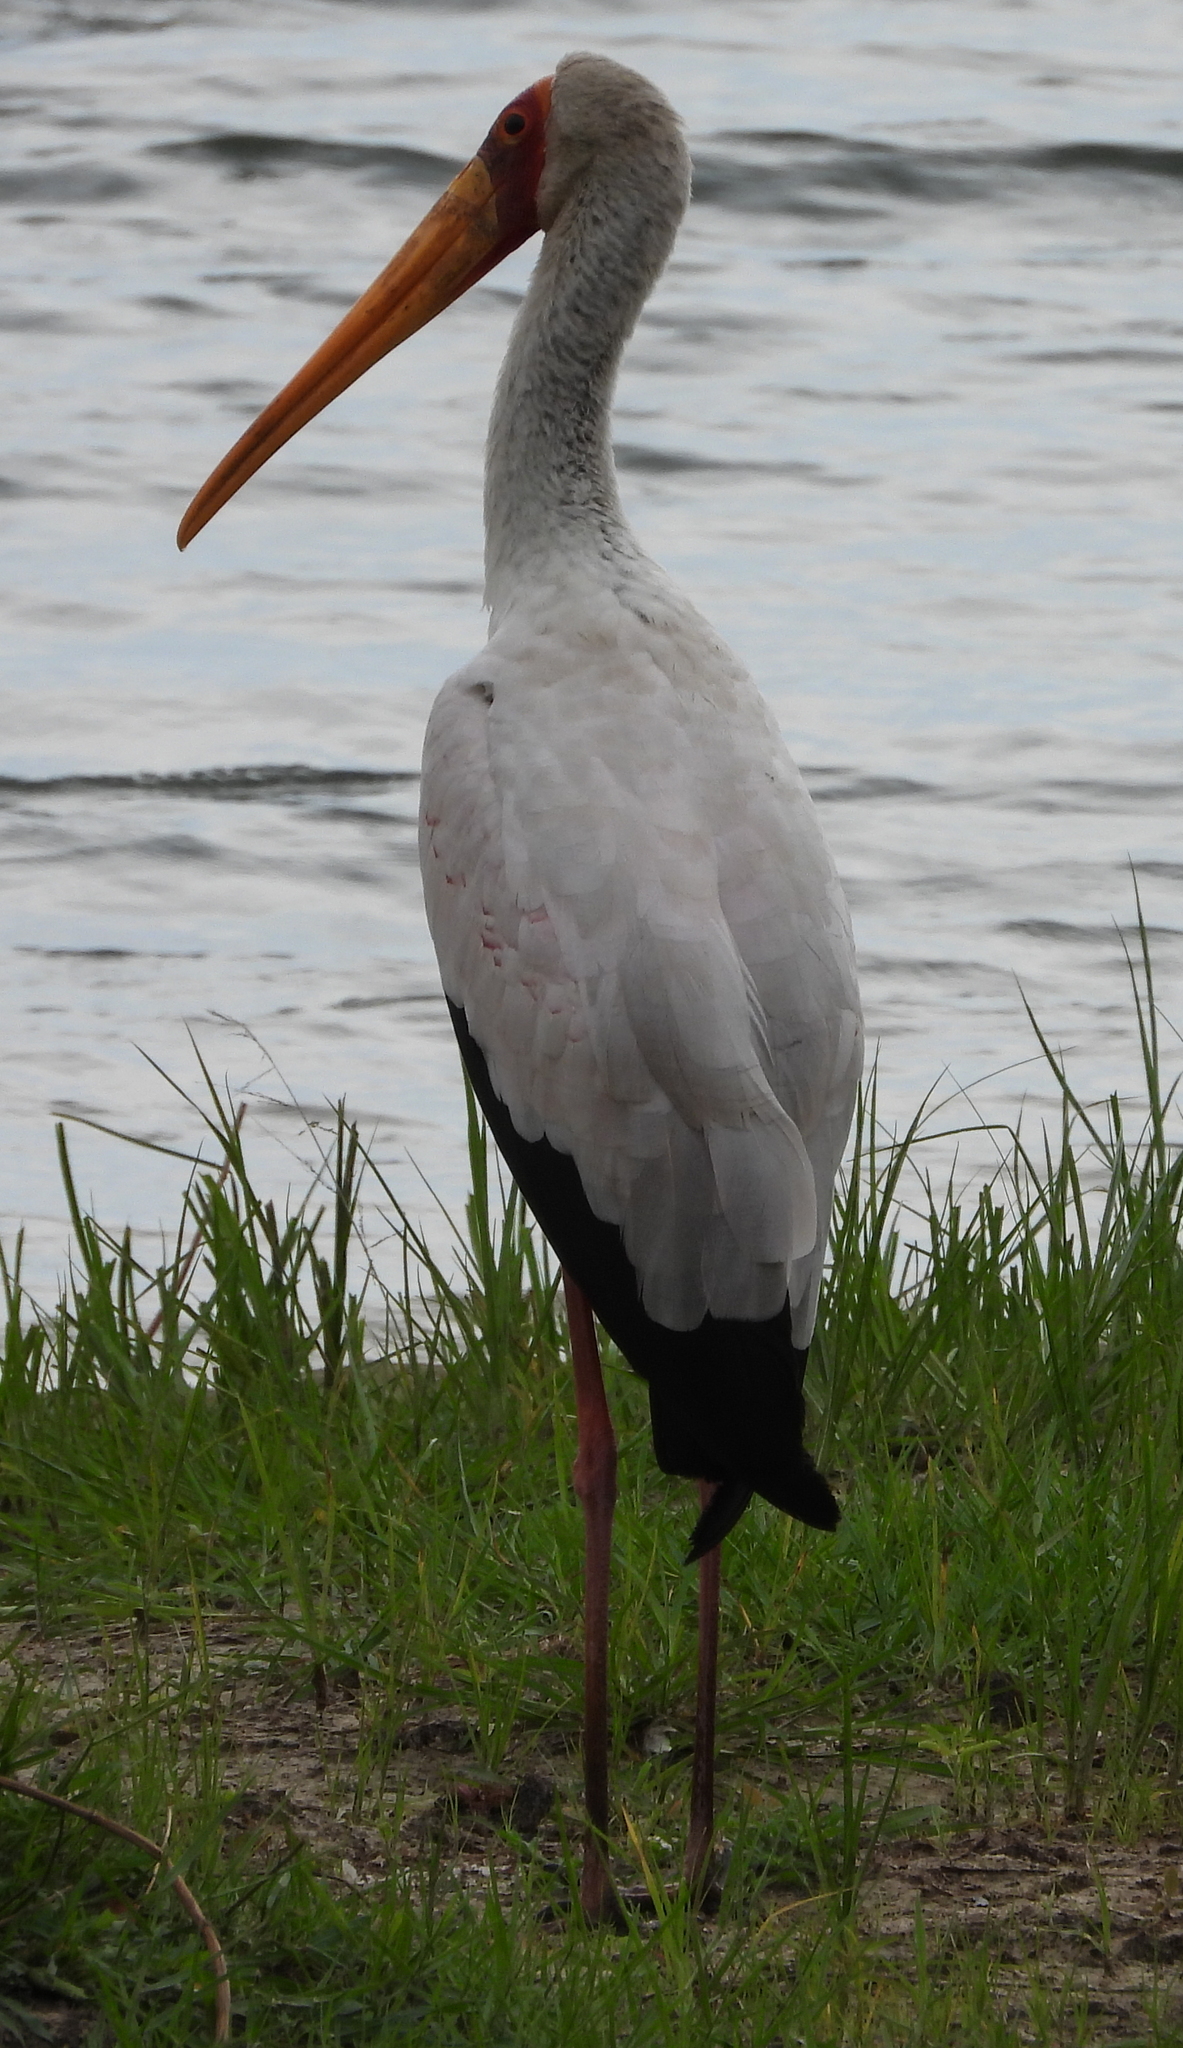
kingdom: Animalia
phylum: Chordata
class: Aves
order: Ciconiiformes
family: Ciconiidae
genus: Mycteria
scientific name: Mycteria ibis
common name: Yellow-billed stork
